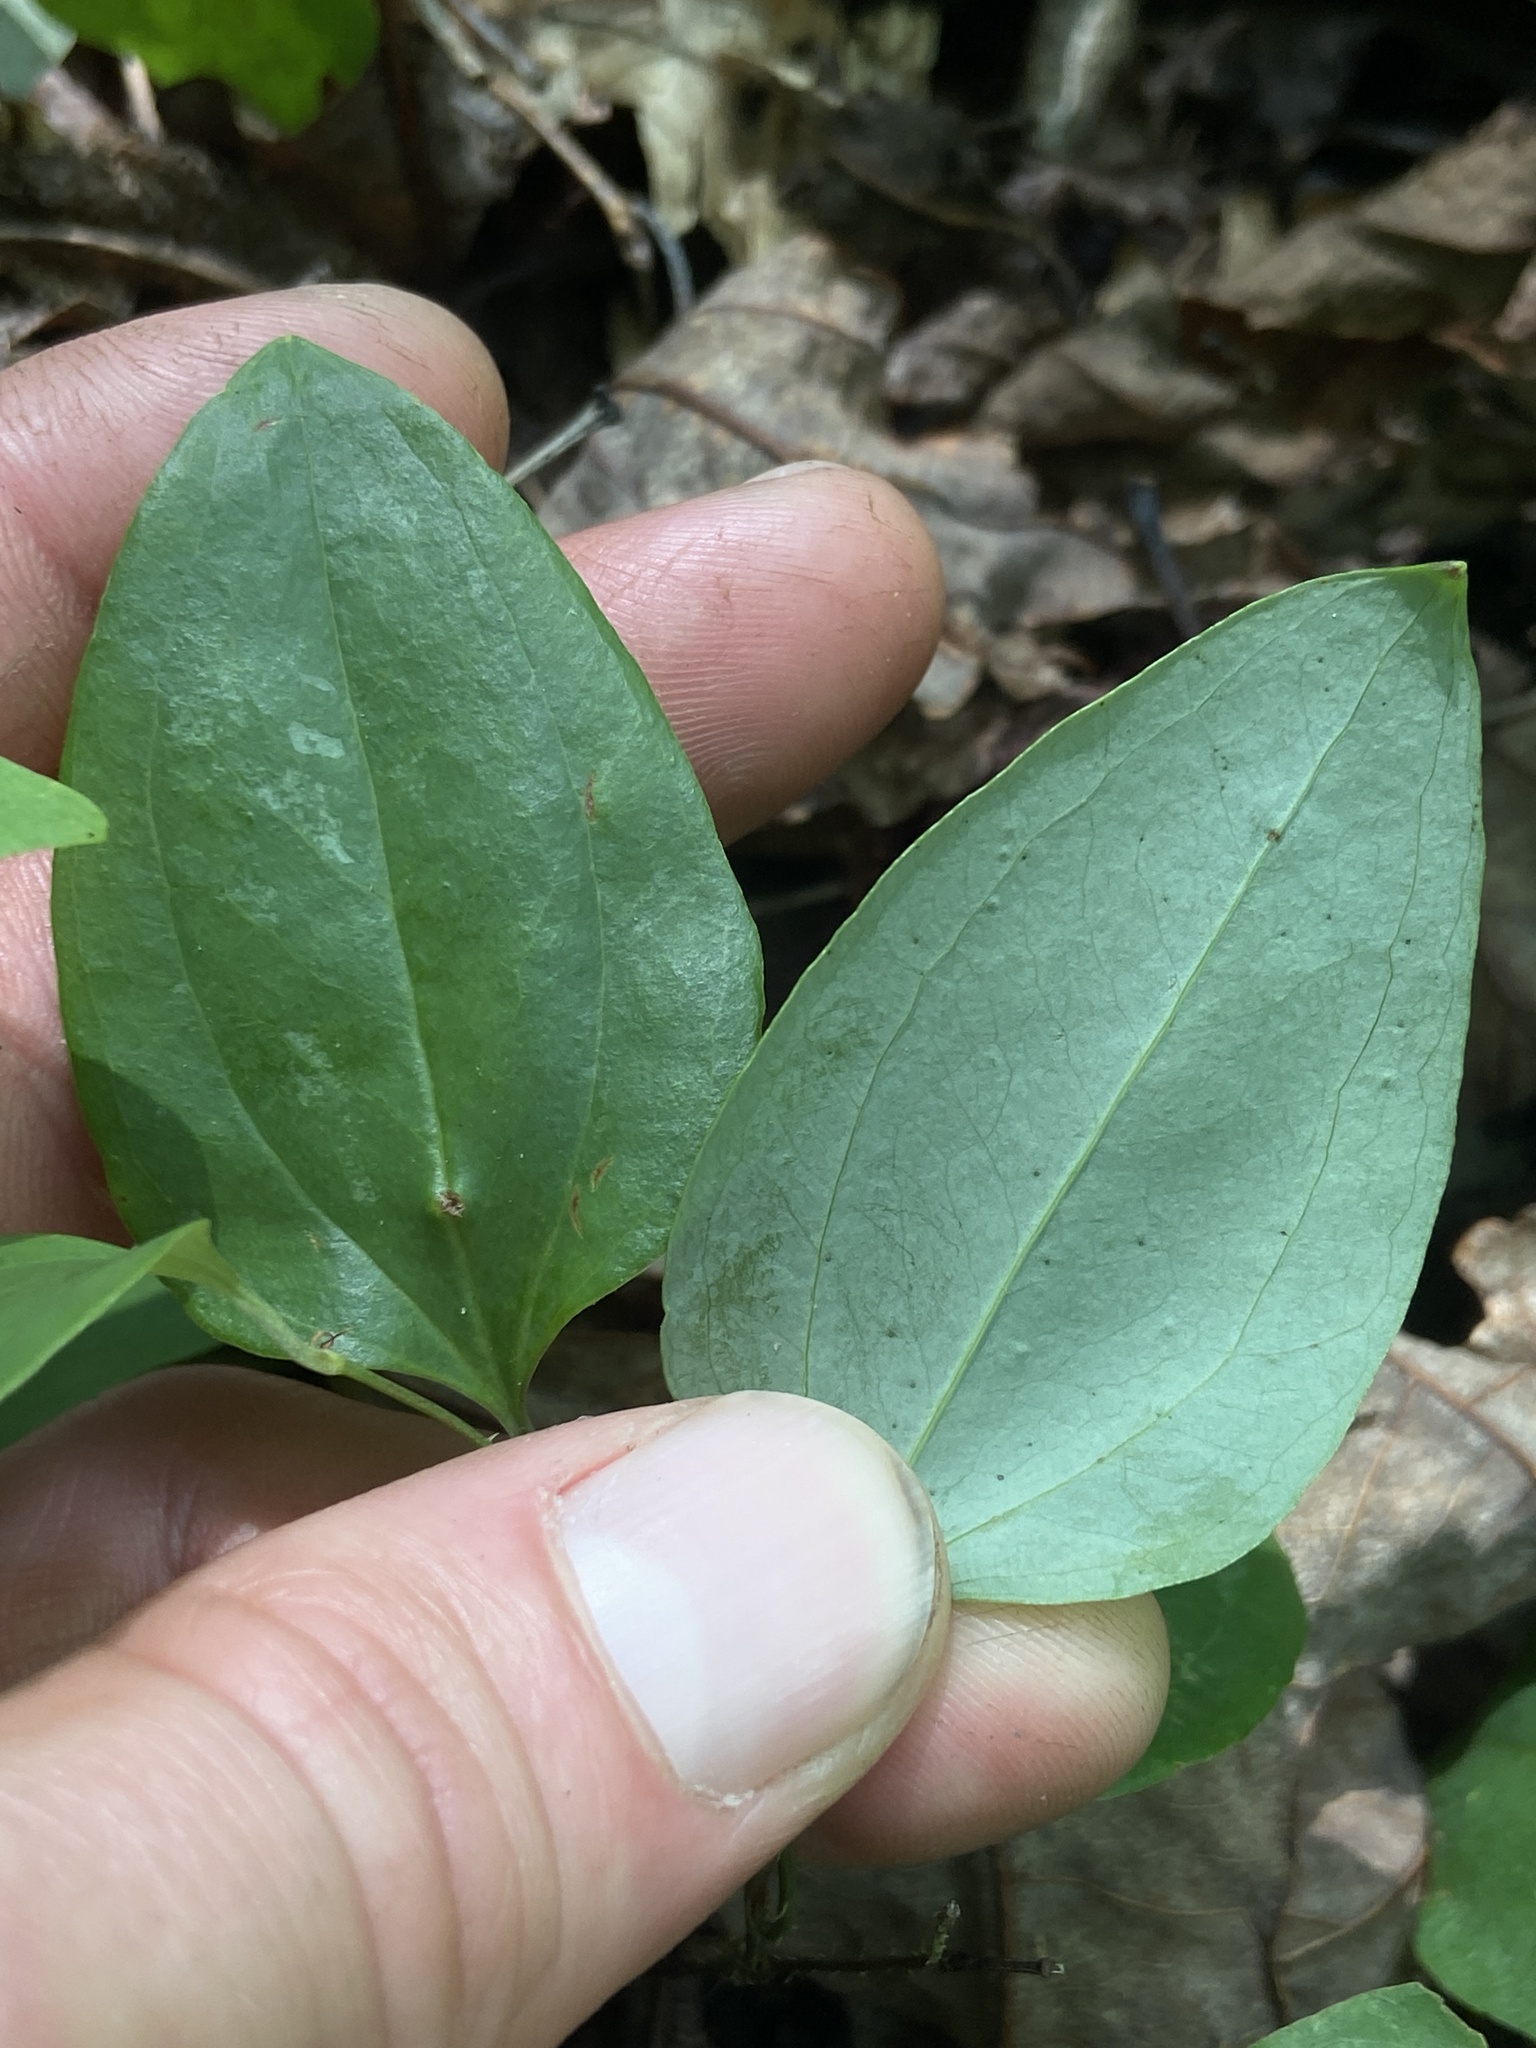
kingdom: Plantae
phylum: Tracheophyta
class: Liliopsida
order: Liliales
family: Smilacaceae
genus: Smilax
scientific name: Smilax glauca
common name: Cat greenbrier
